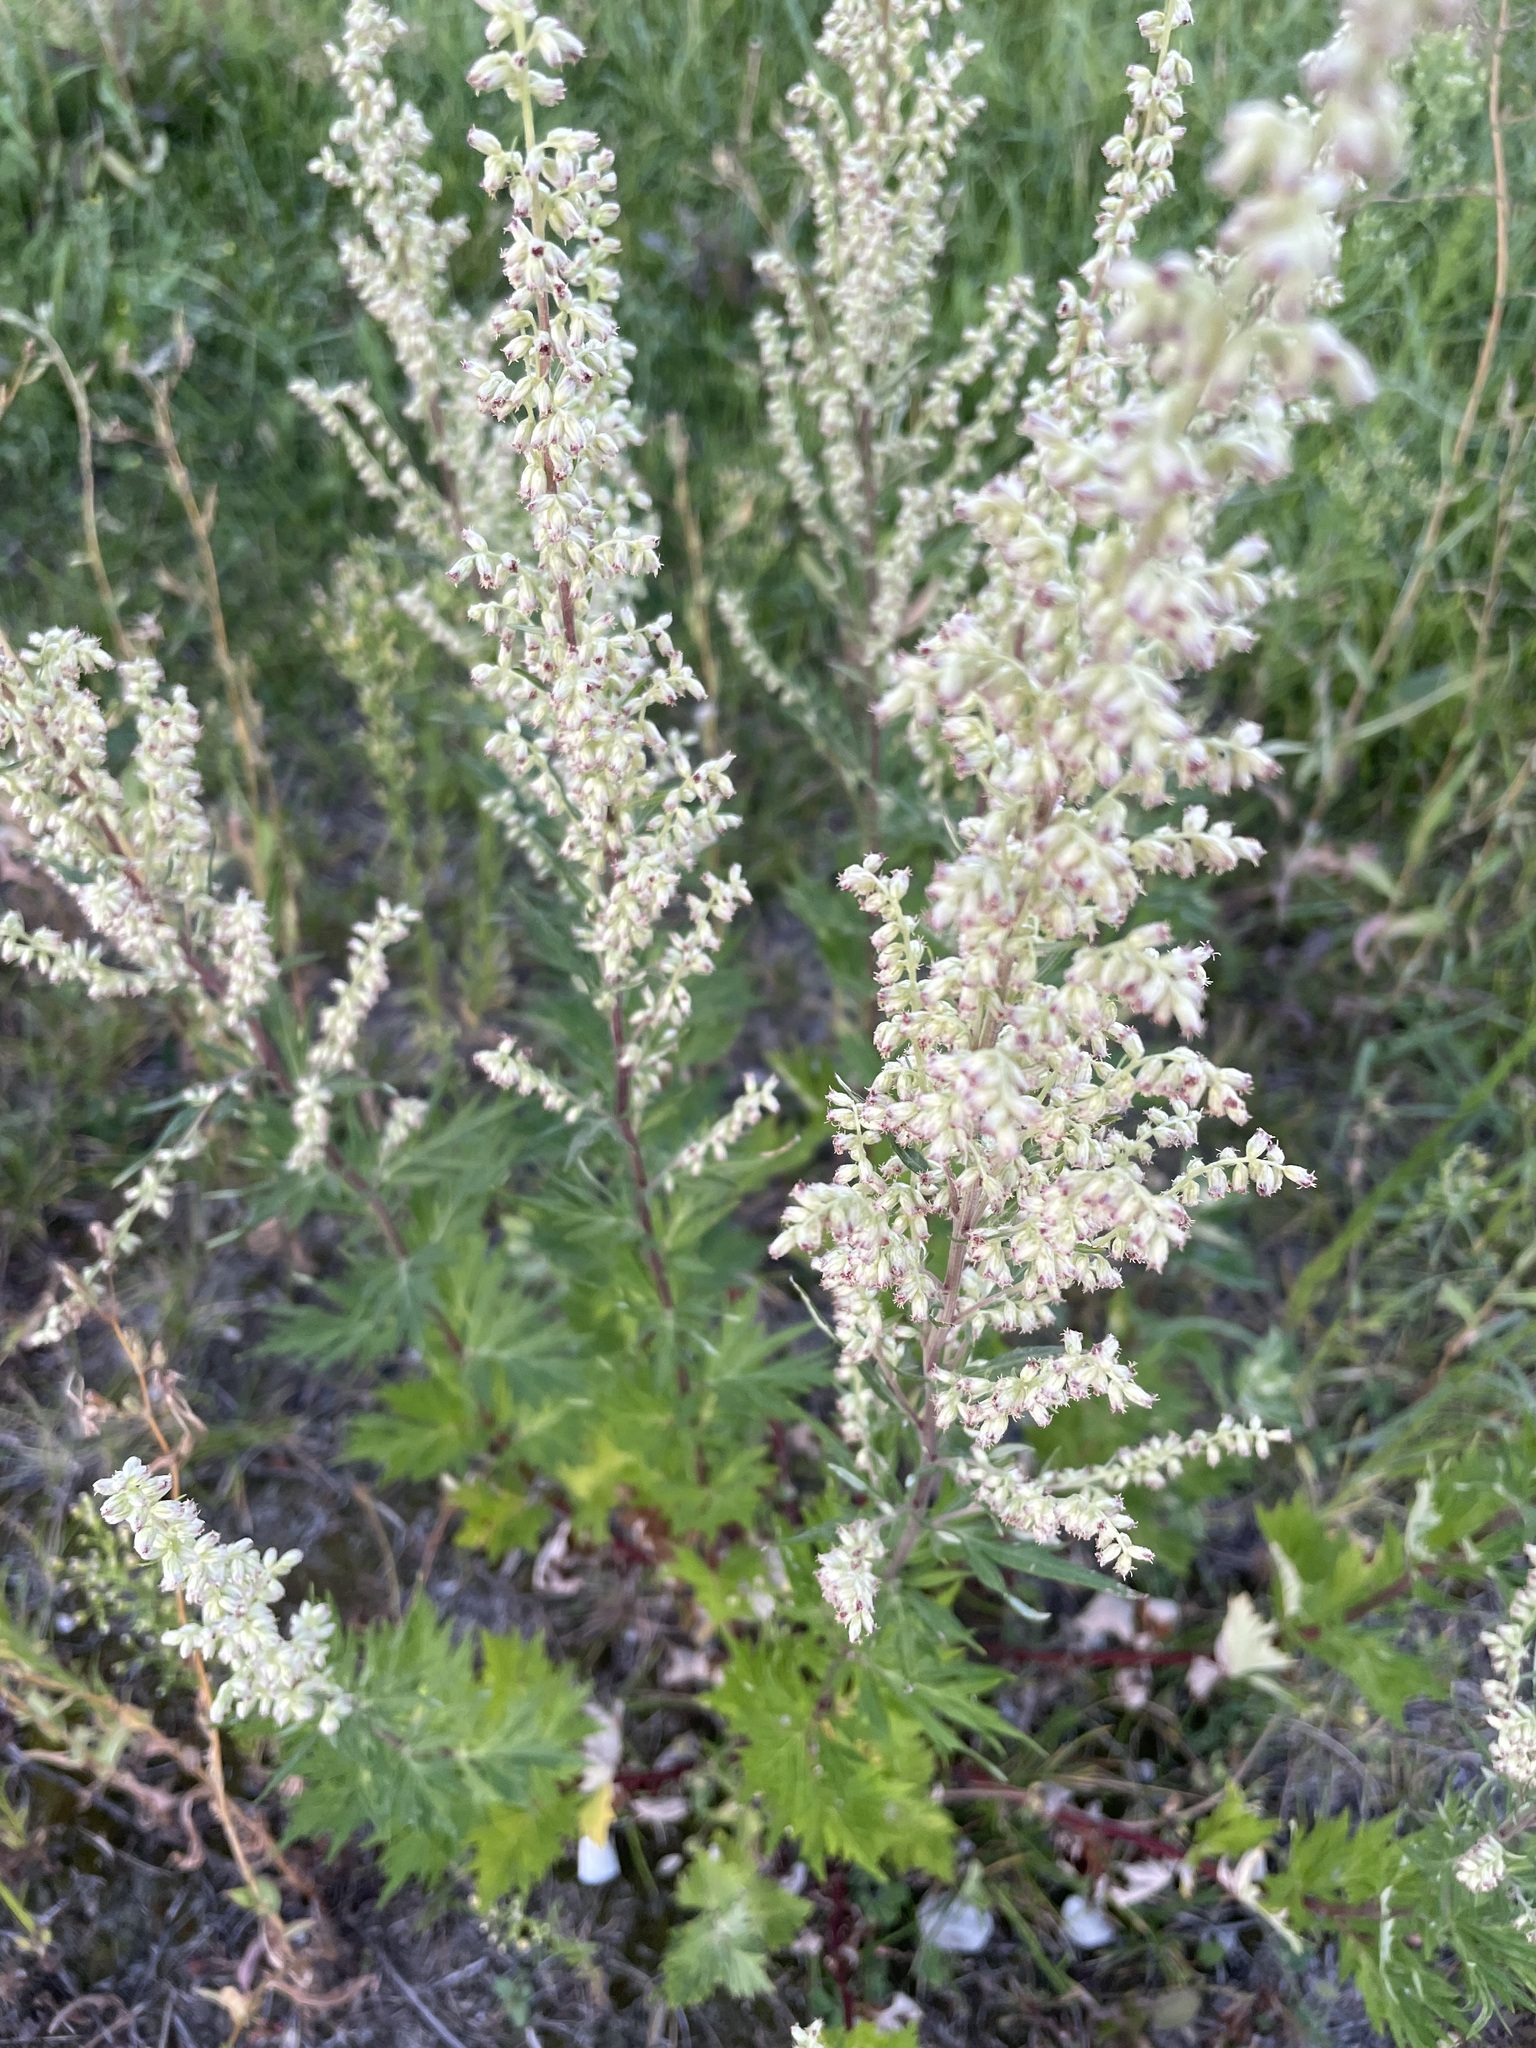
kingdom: Plantae
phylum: Tracheophyta
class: Magnoliopsida
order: Asterales
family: Asteraceae
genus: Artemisia
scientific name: Artemisia vulgaris
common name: Mugwort
